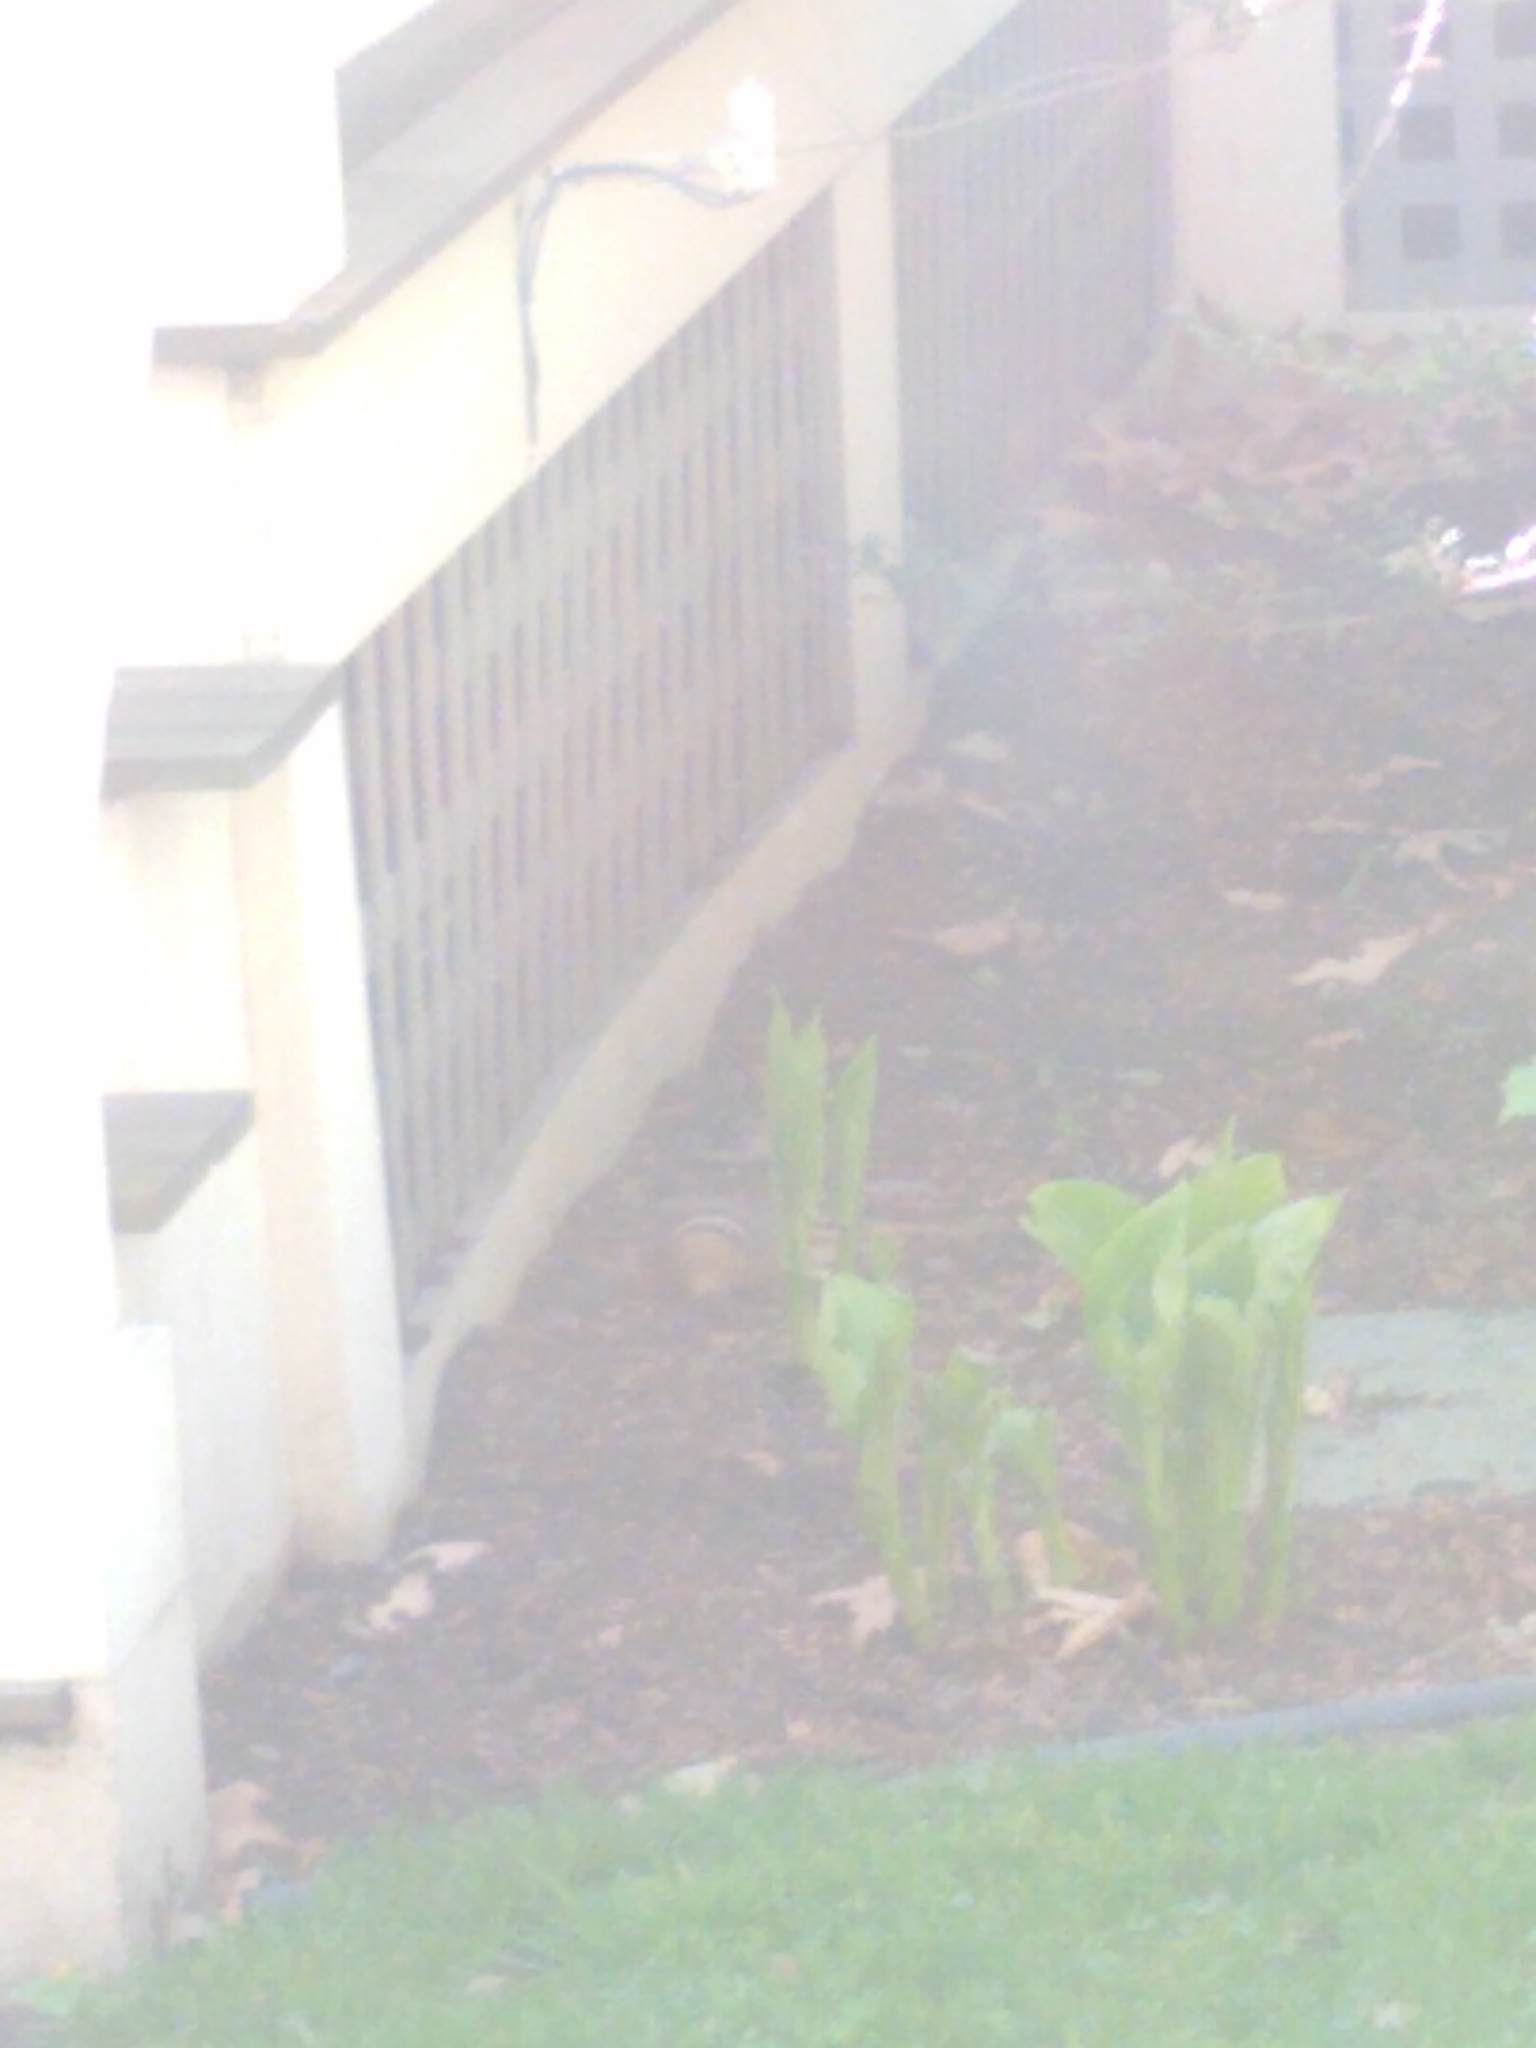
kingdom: Animalia
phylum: Chordata
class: Mammalia
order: Rodentia
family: Sciuridae
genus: Tamias
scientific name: Tamias striatus
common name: Eastern chipmunk
